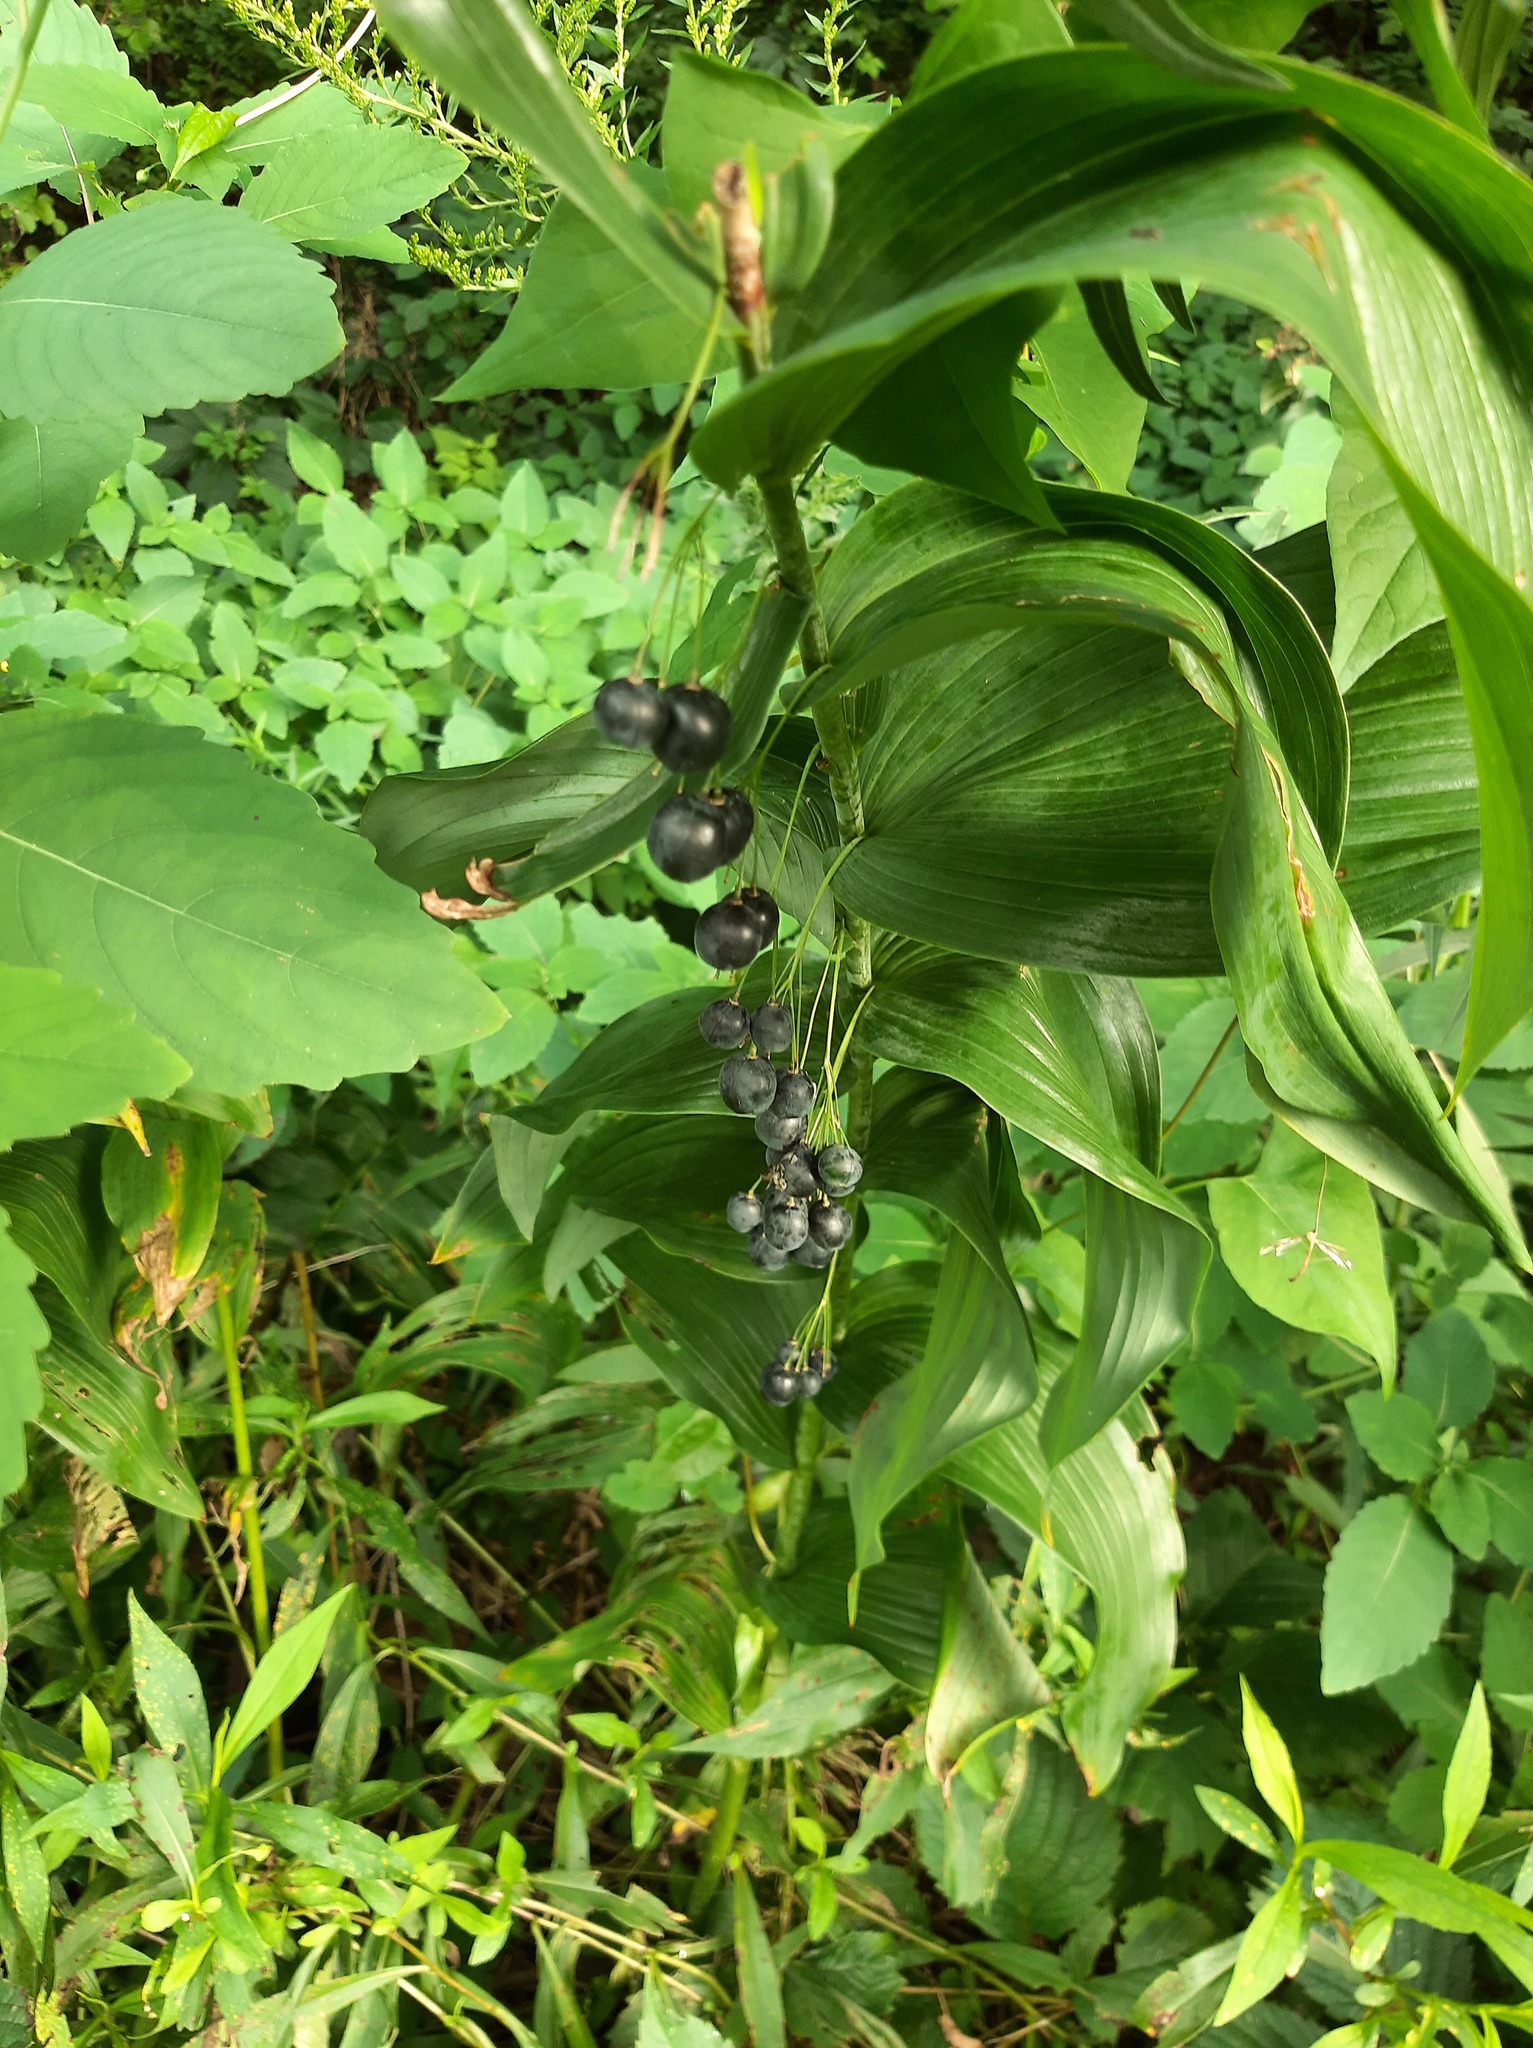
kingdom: Plantae
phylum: Tracheophyta
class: Liliopsida
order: Asparagales
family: Asparagaceae
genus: Polygonatum
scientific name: Polygonatum biflorum
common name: American solomon's-seal
